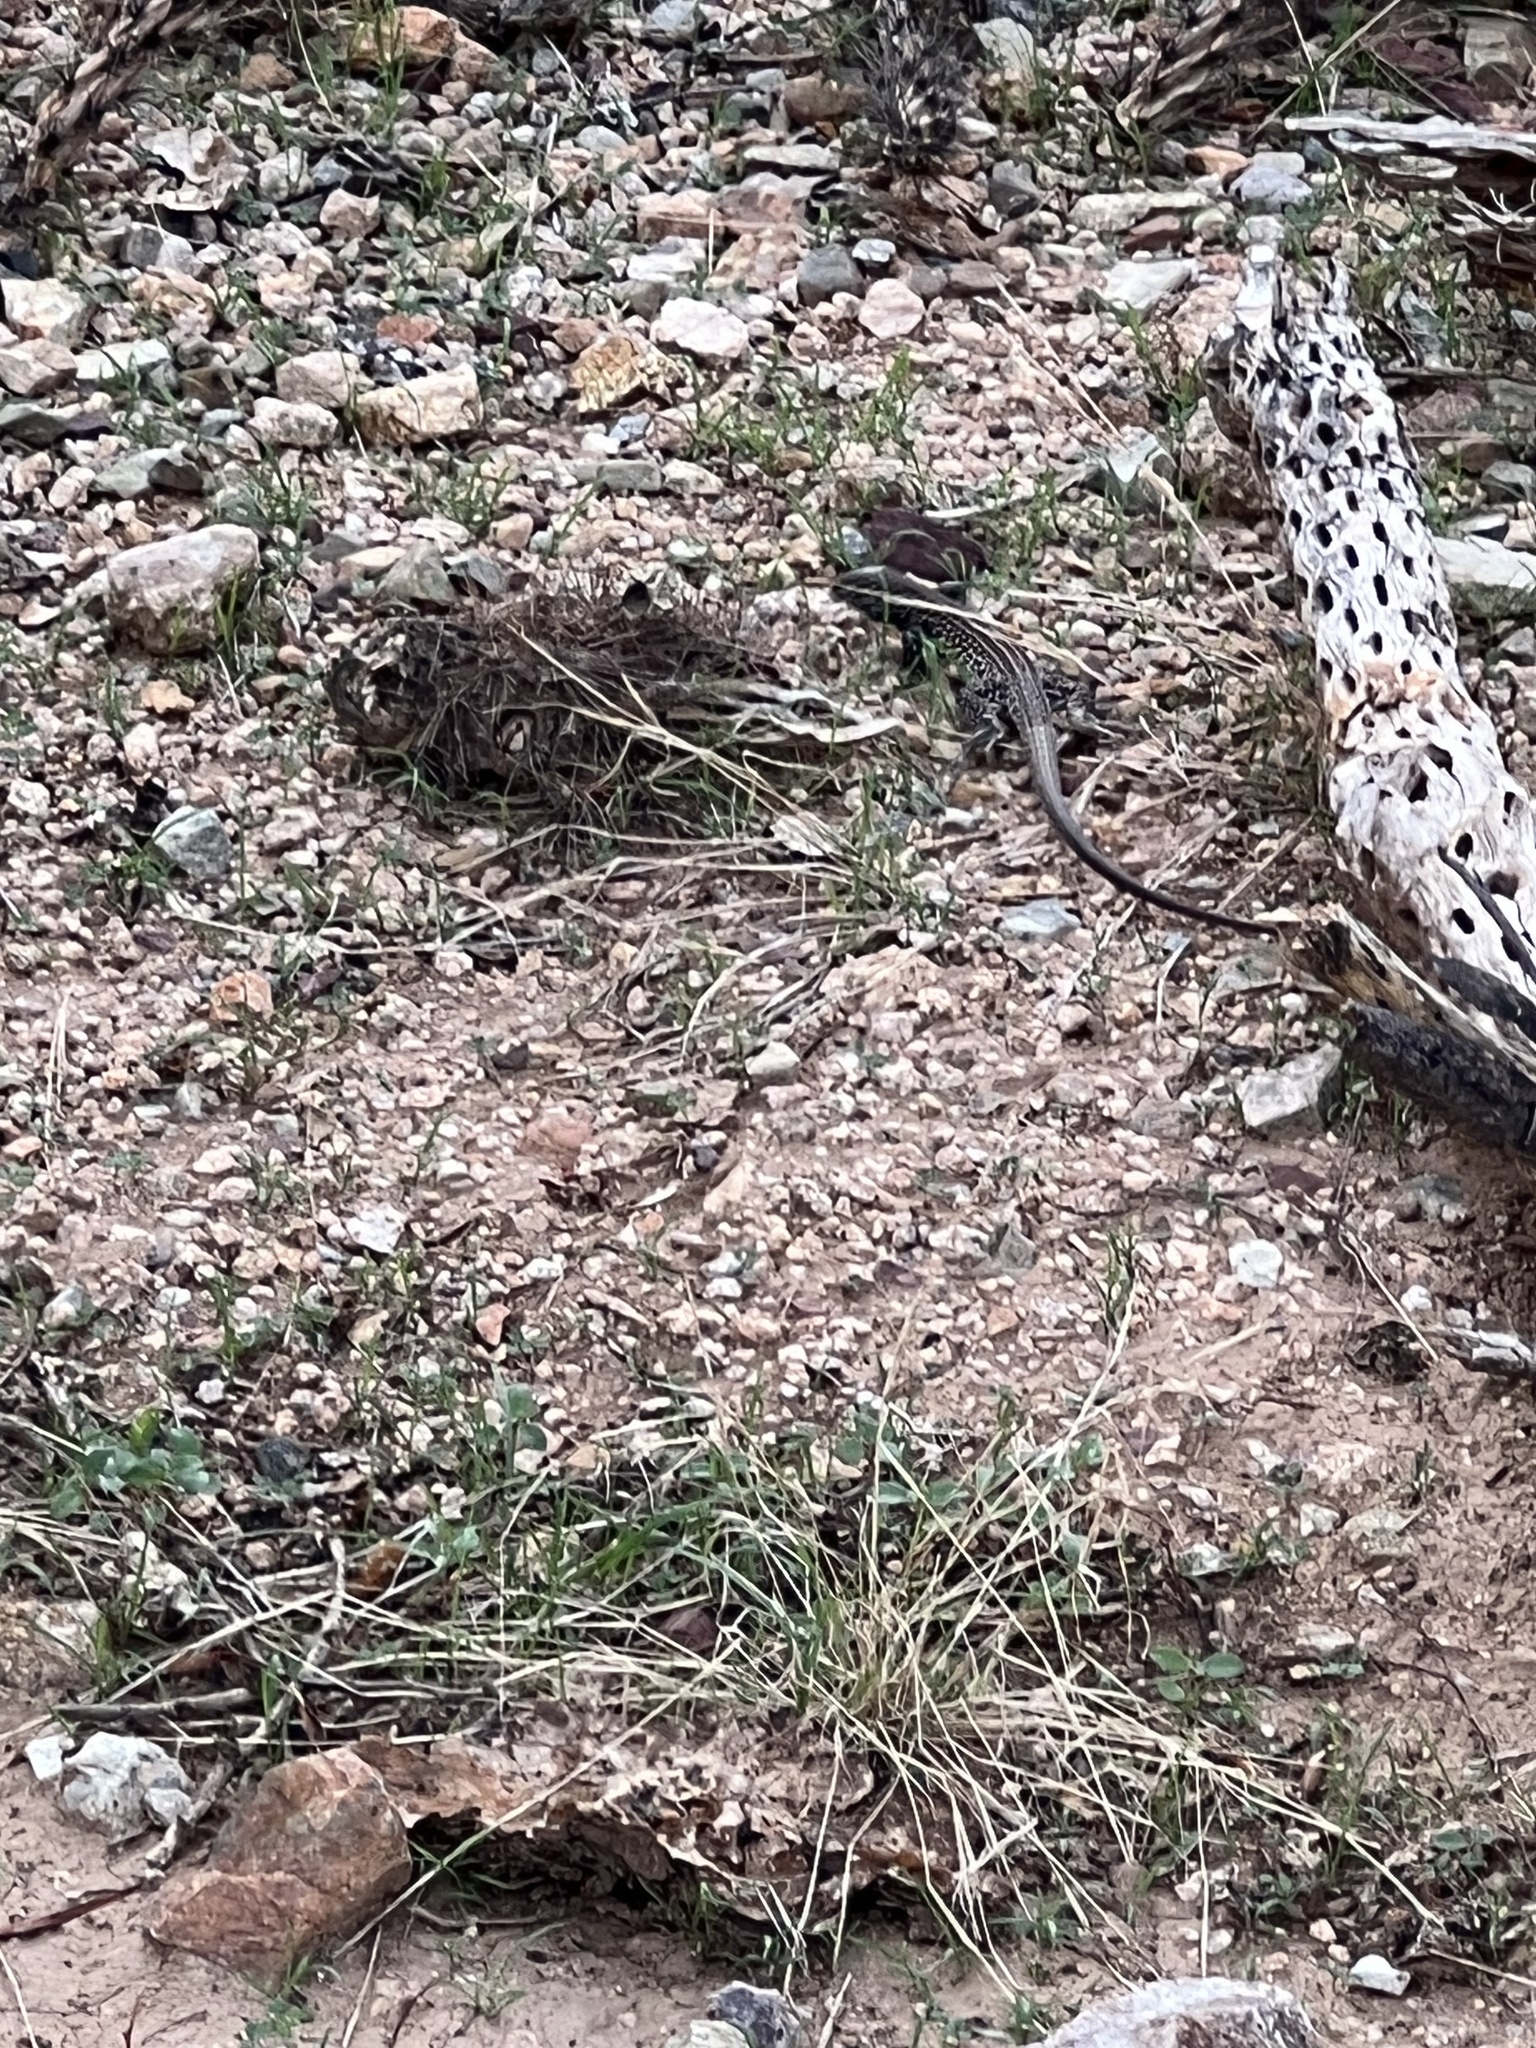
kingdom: Animalia
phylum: Chordata
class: Squamata
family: Teiidae
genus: Aspidoscelis
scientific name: Aspidoscelis tigris
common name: Tiger whiptail
